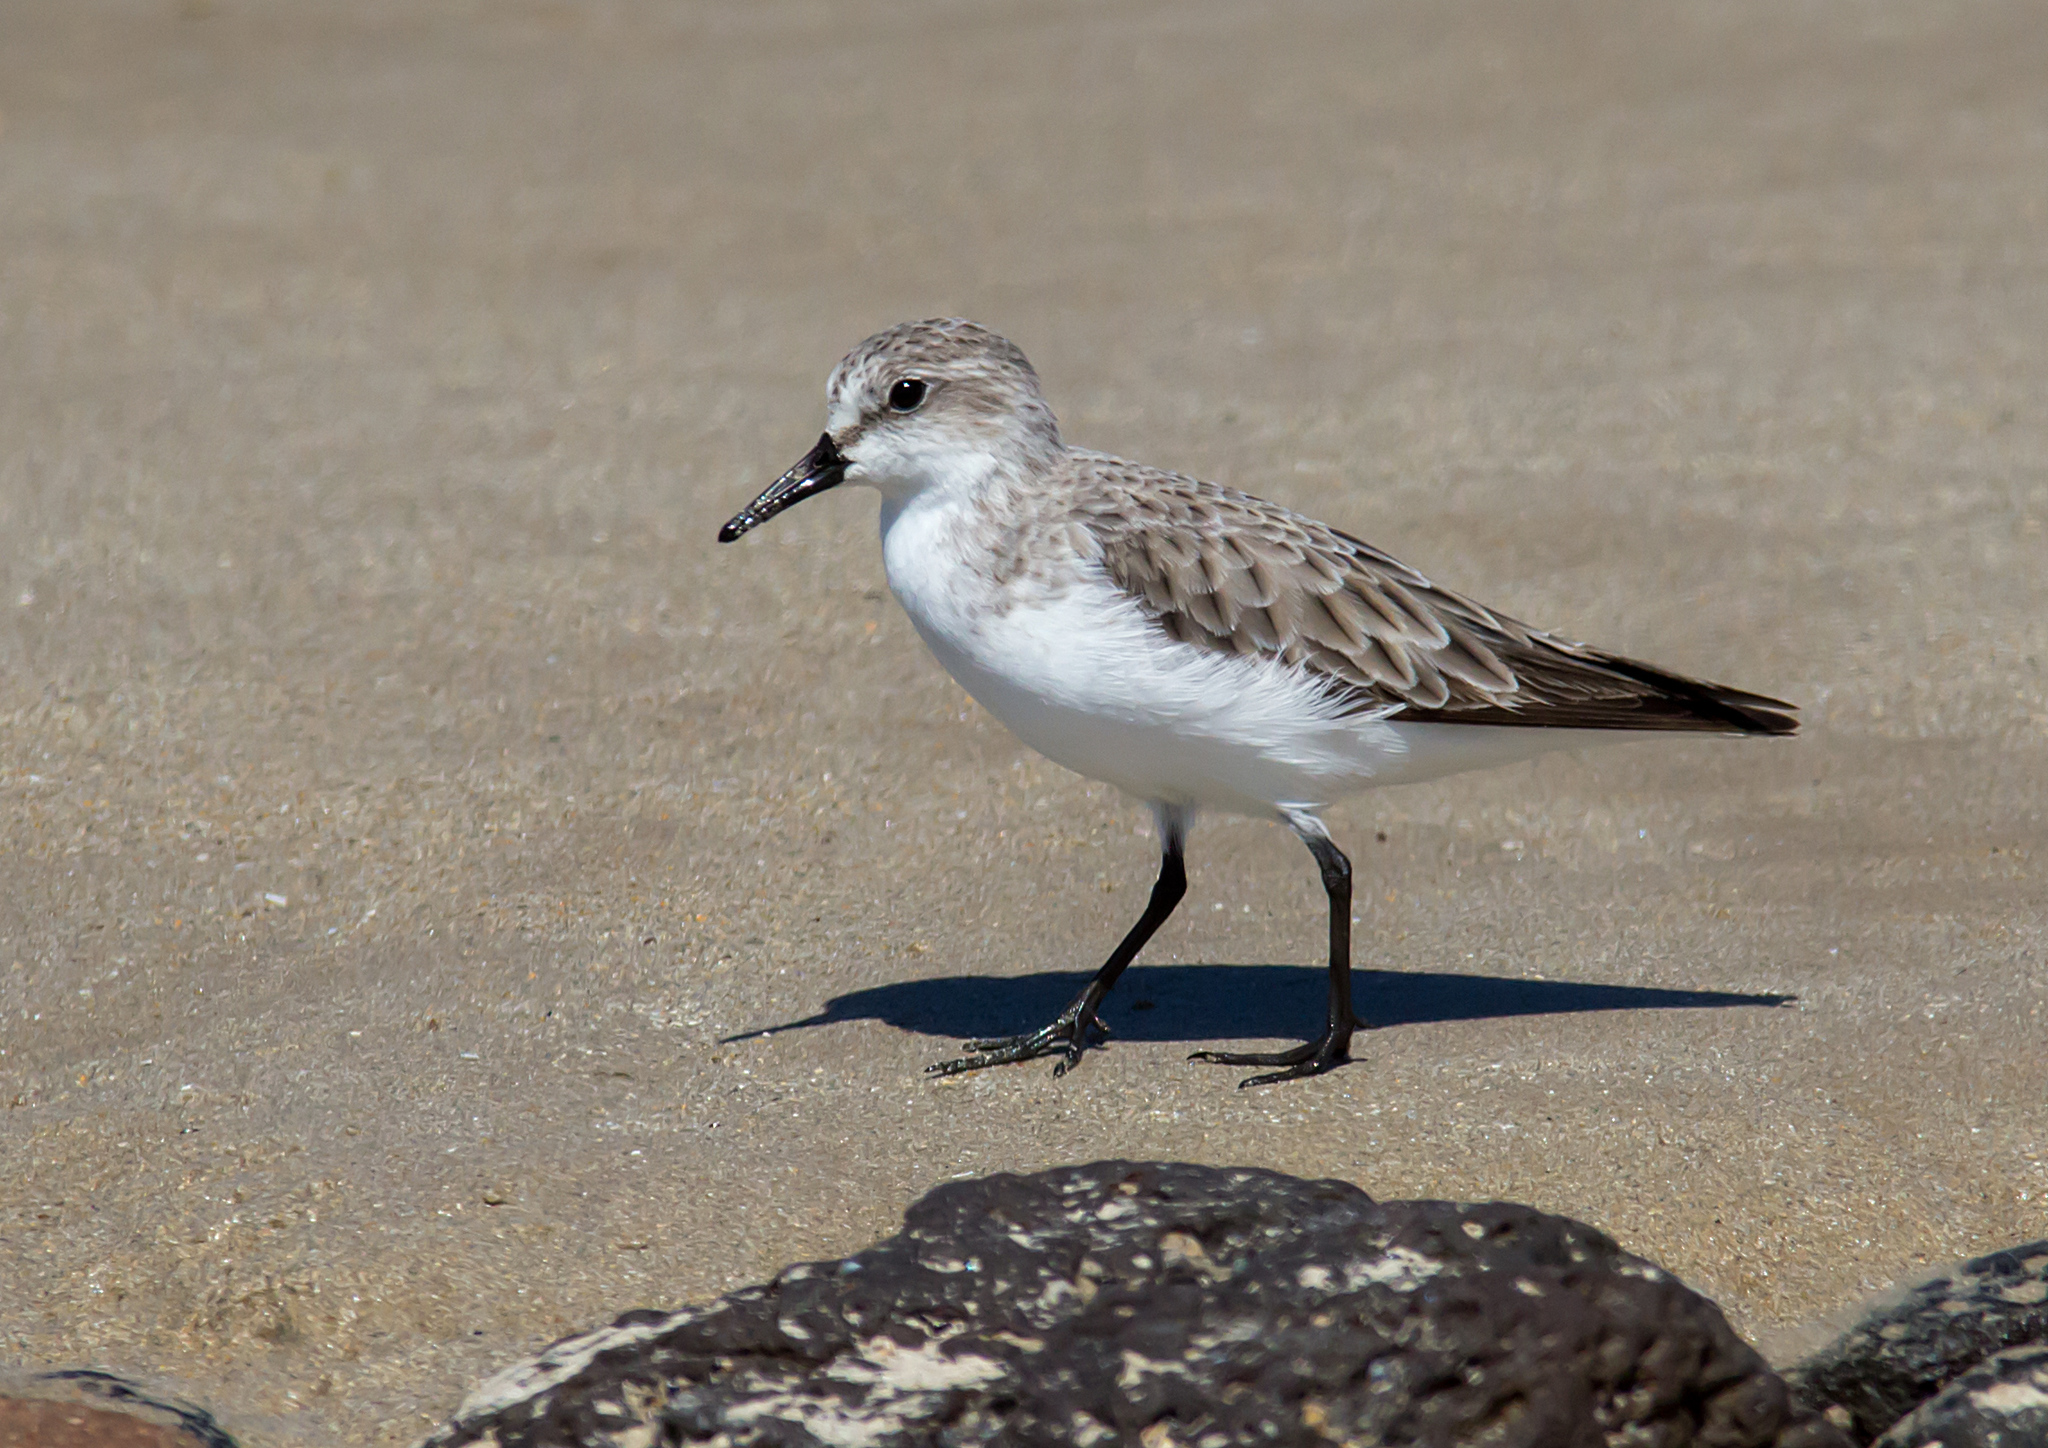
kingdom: Animalia
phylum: Chordata
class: Aves
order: Charadriiformes
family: Scolopacidae
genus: Calidris
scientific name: Calidris ruficollis
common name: Red-necked stint
